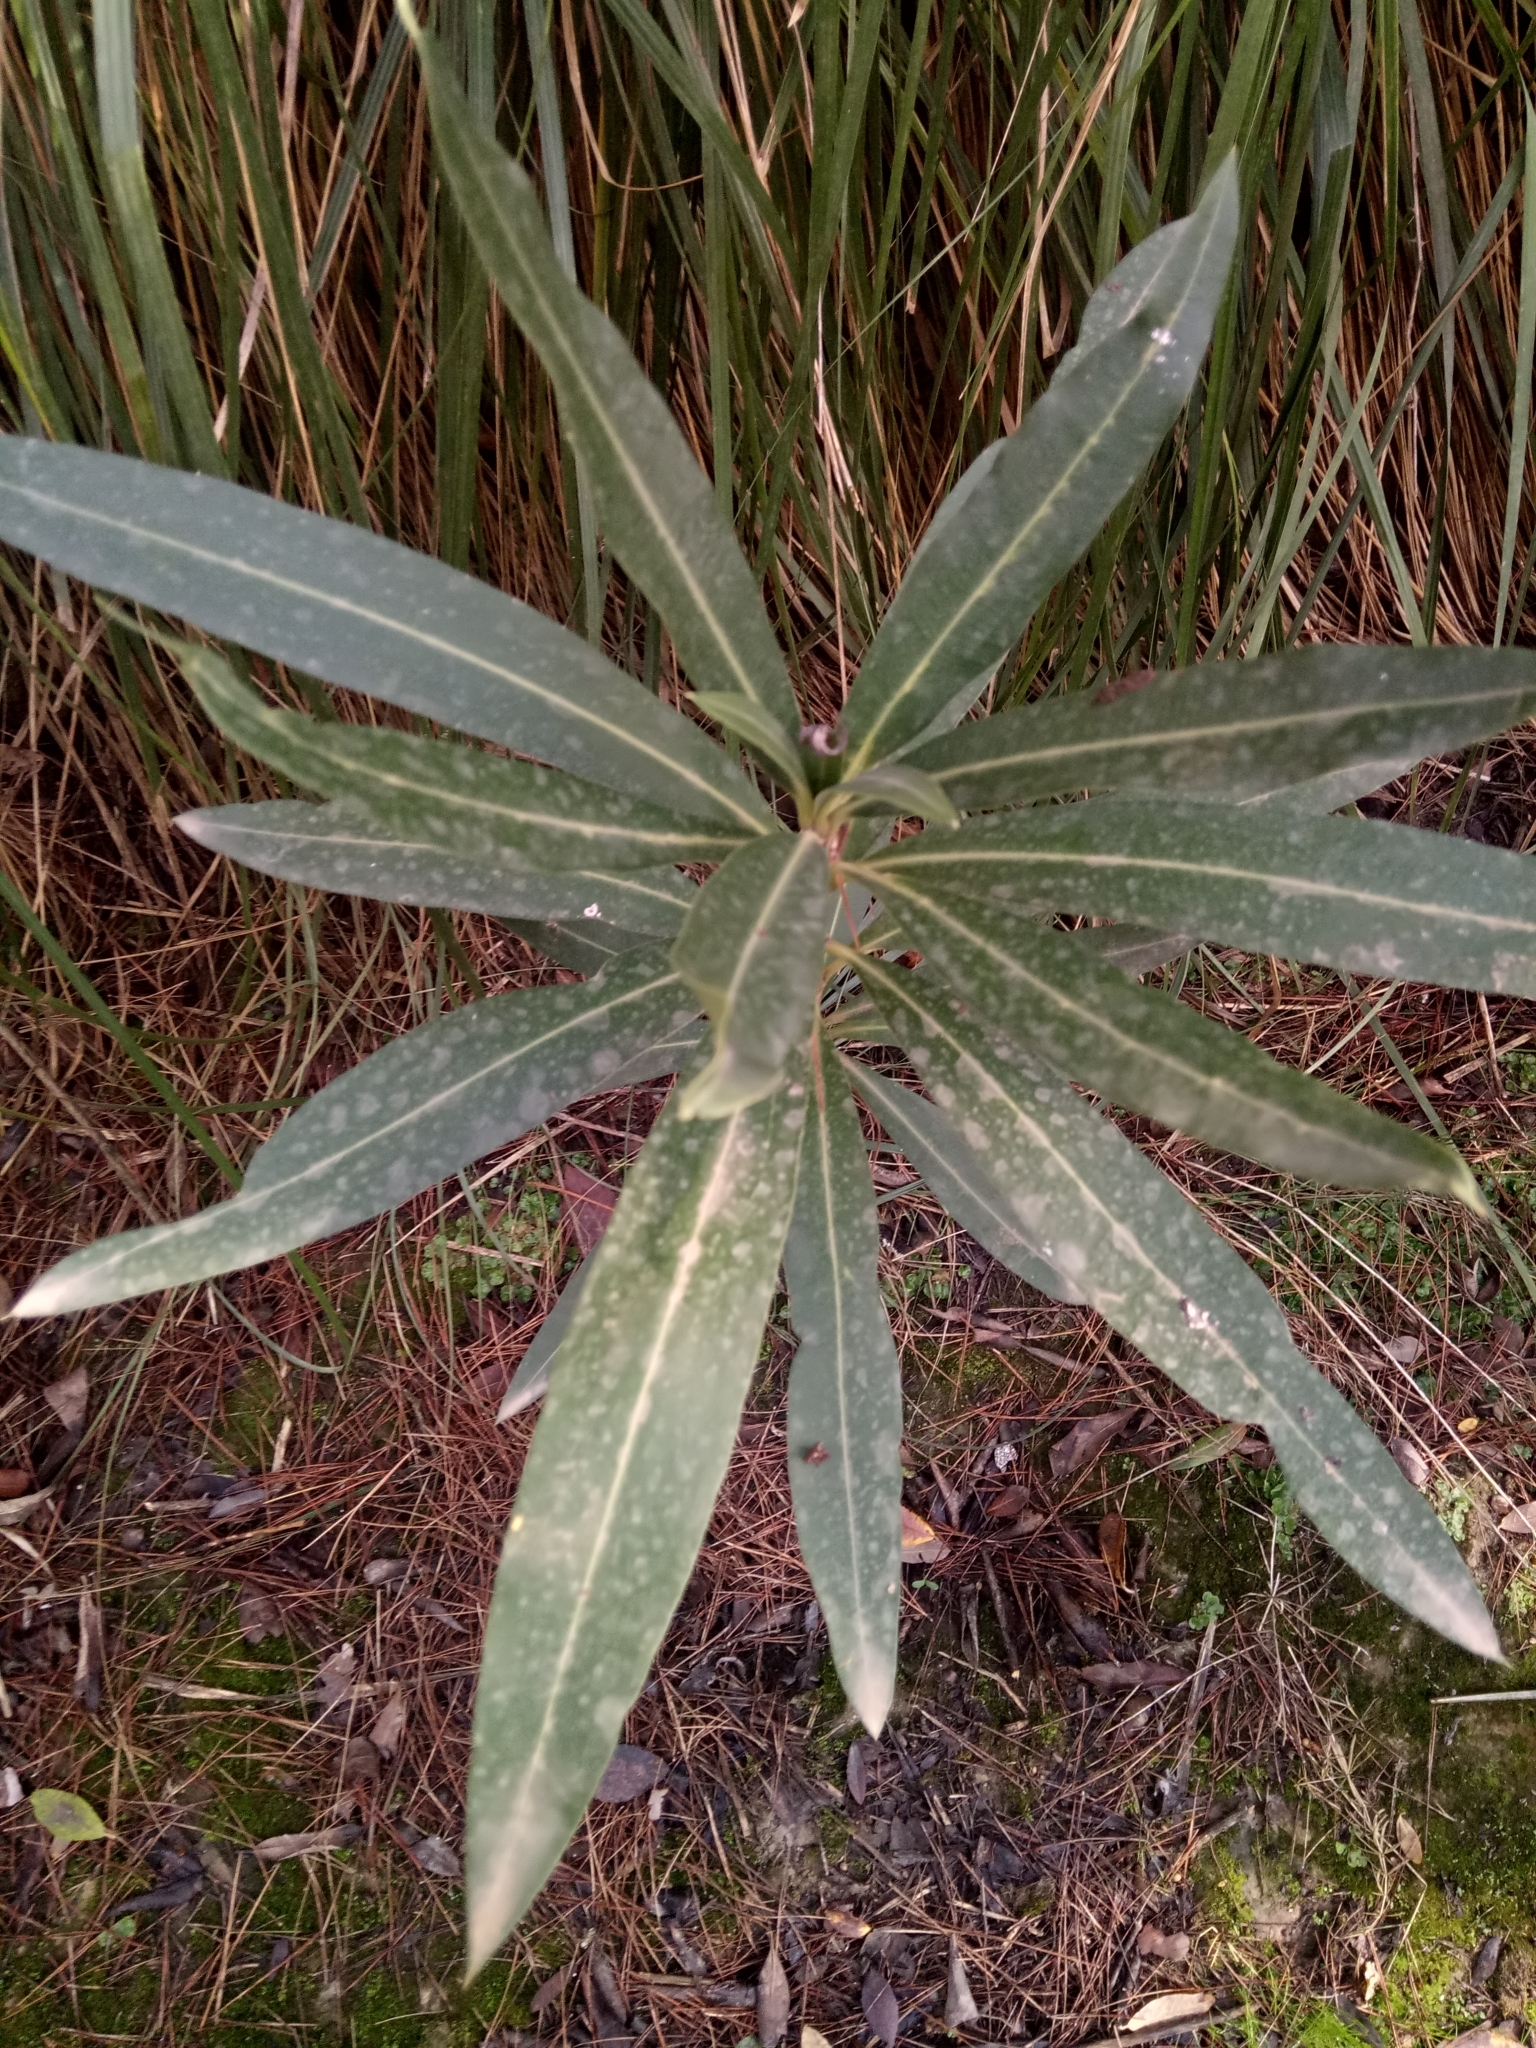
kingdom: Plantae
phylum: Tracheophyta
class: Magnoliopsida
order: Gentianales
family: Apocynaceae
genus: Nerium
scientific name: Nerium oleander
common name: Oleander
